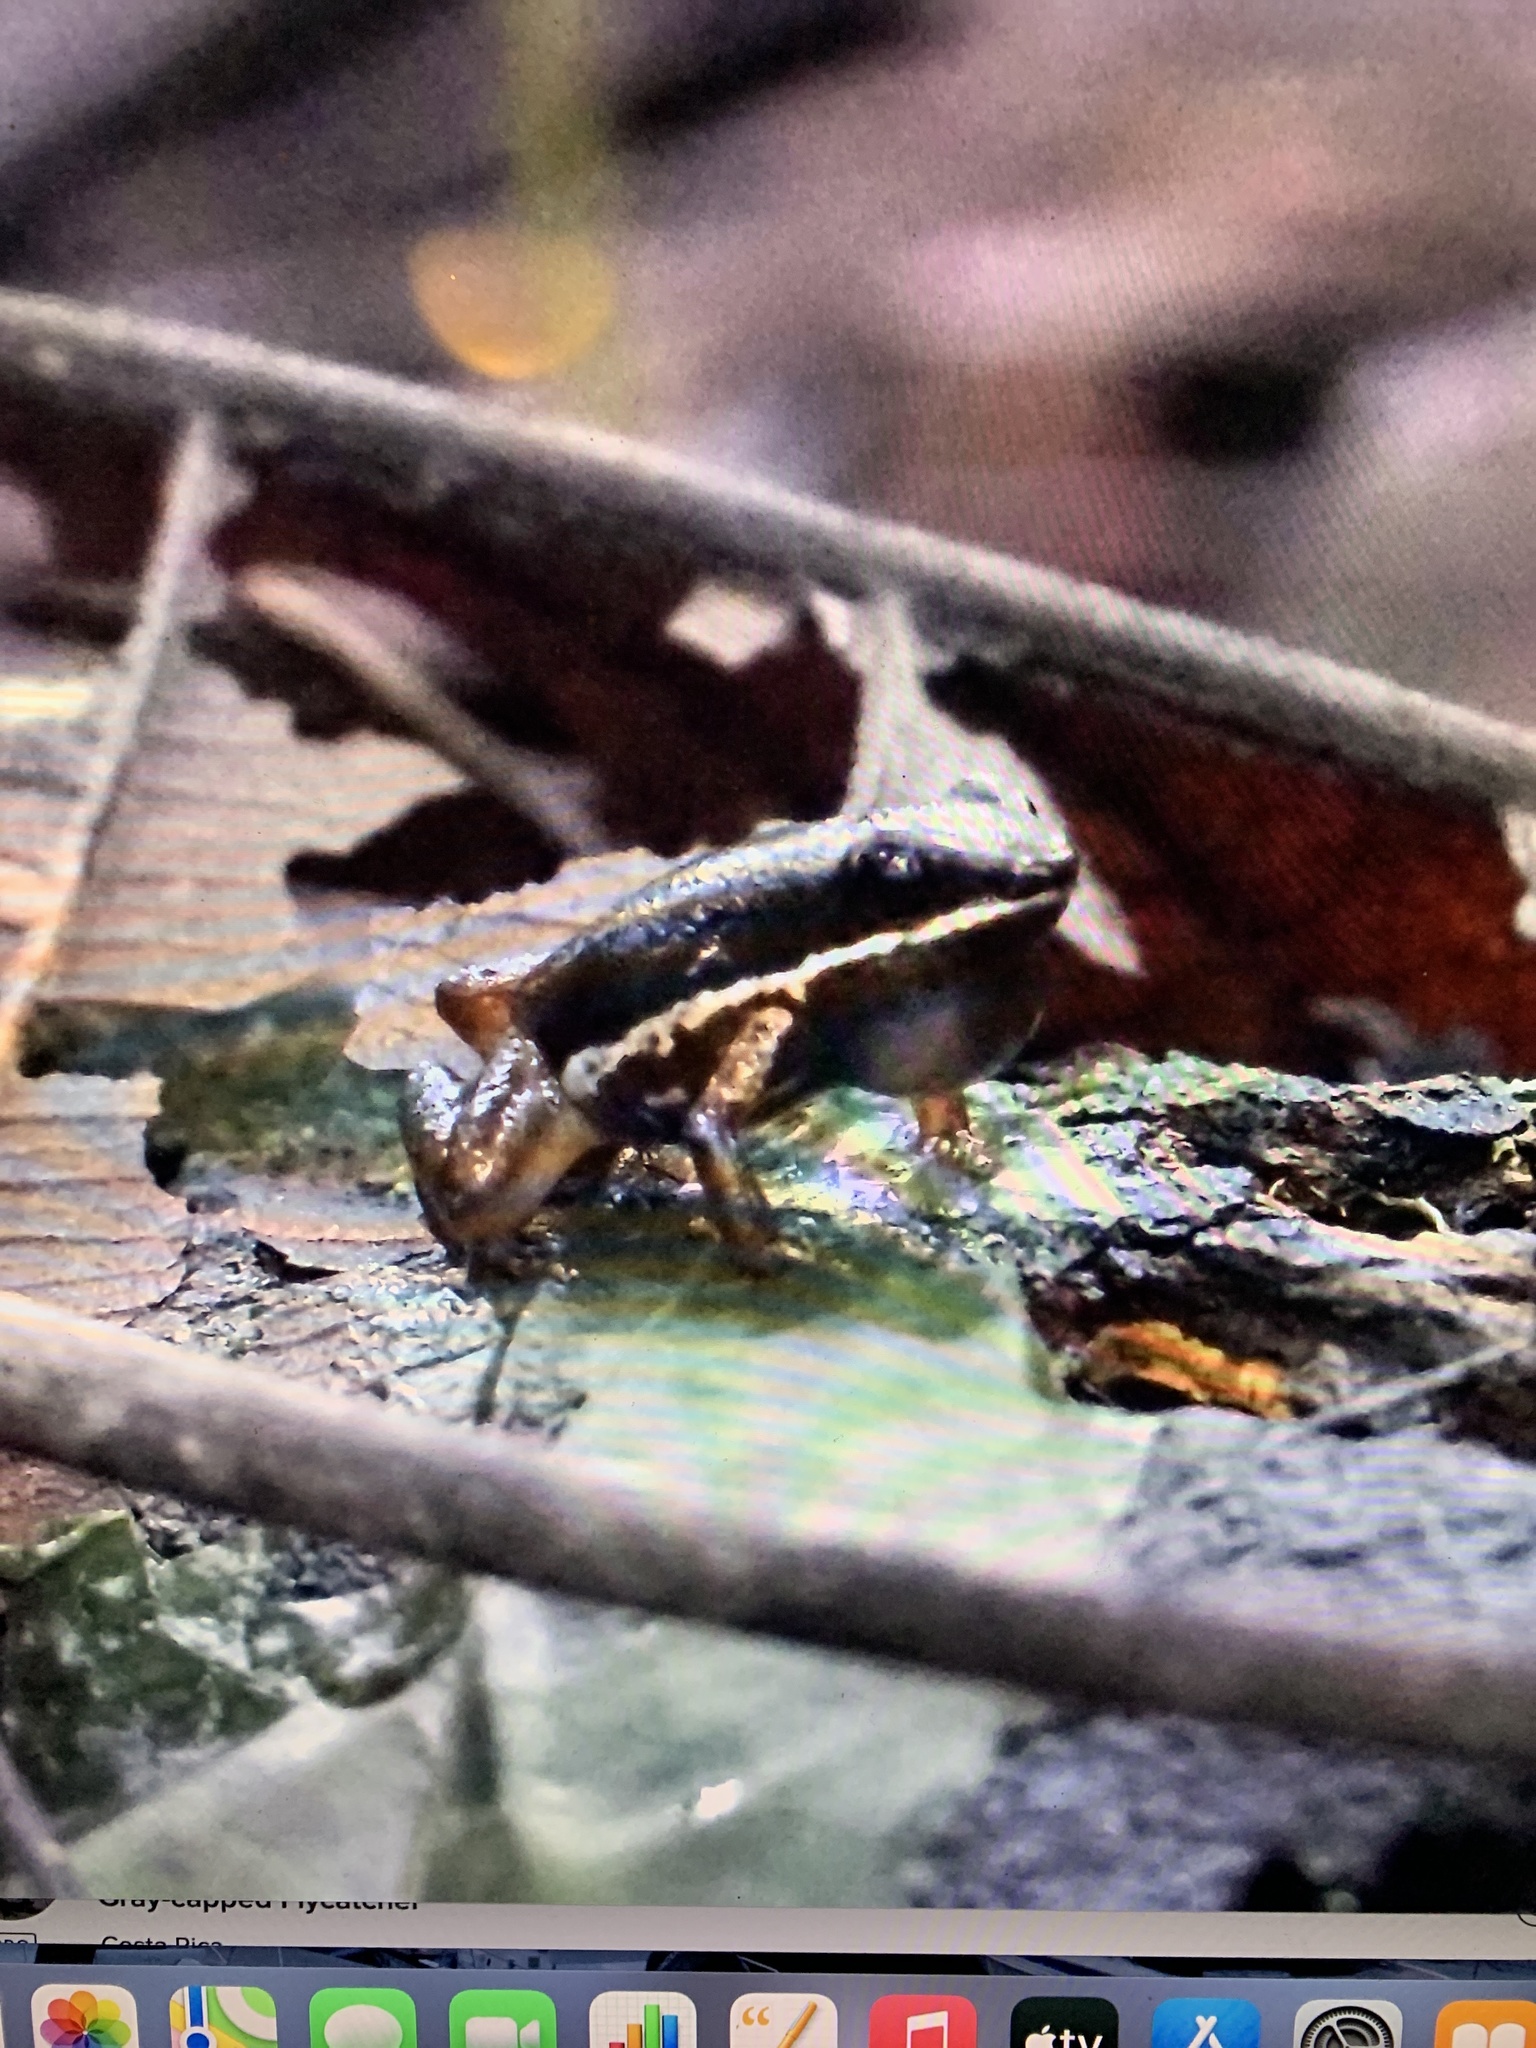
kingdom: Animalia
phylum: Chordata
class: Amphibia
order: Anura
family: Aromobatidae
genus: Allobates
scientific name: Allobates talamancae
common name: Talamanca rocket frog
